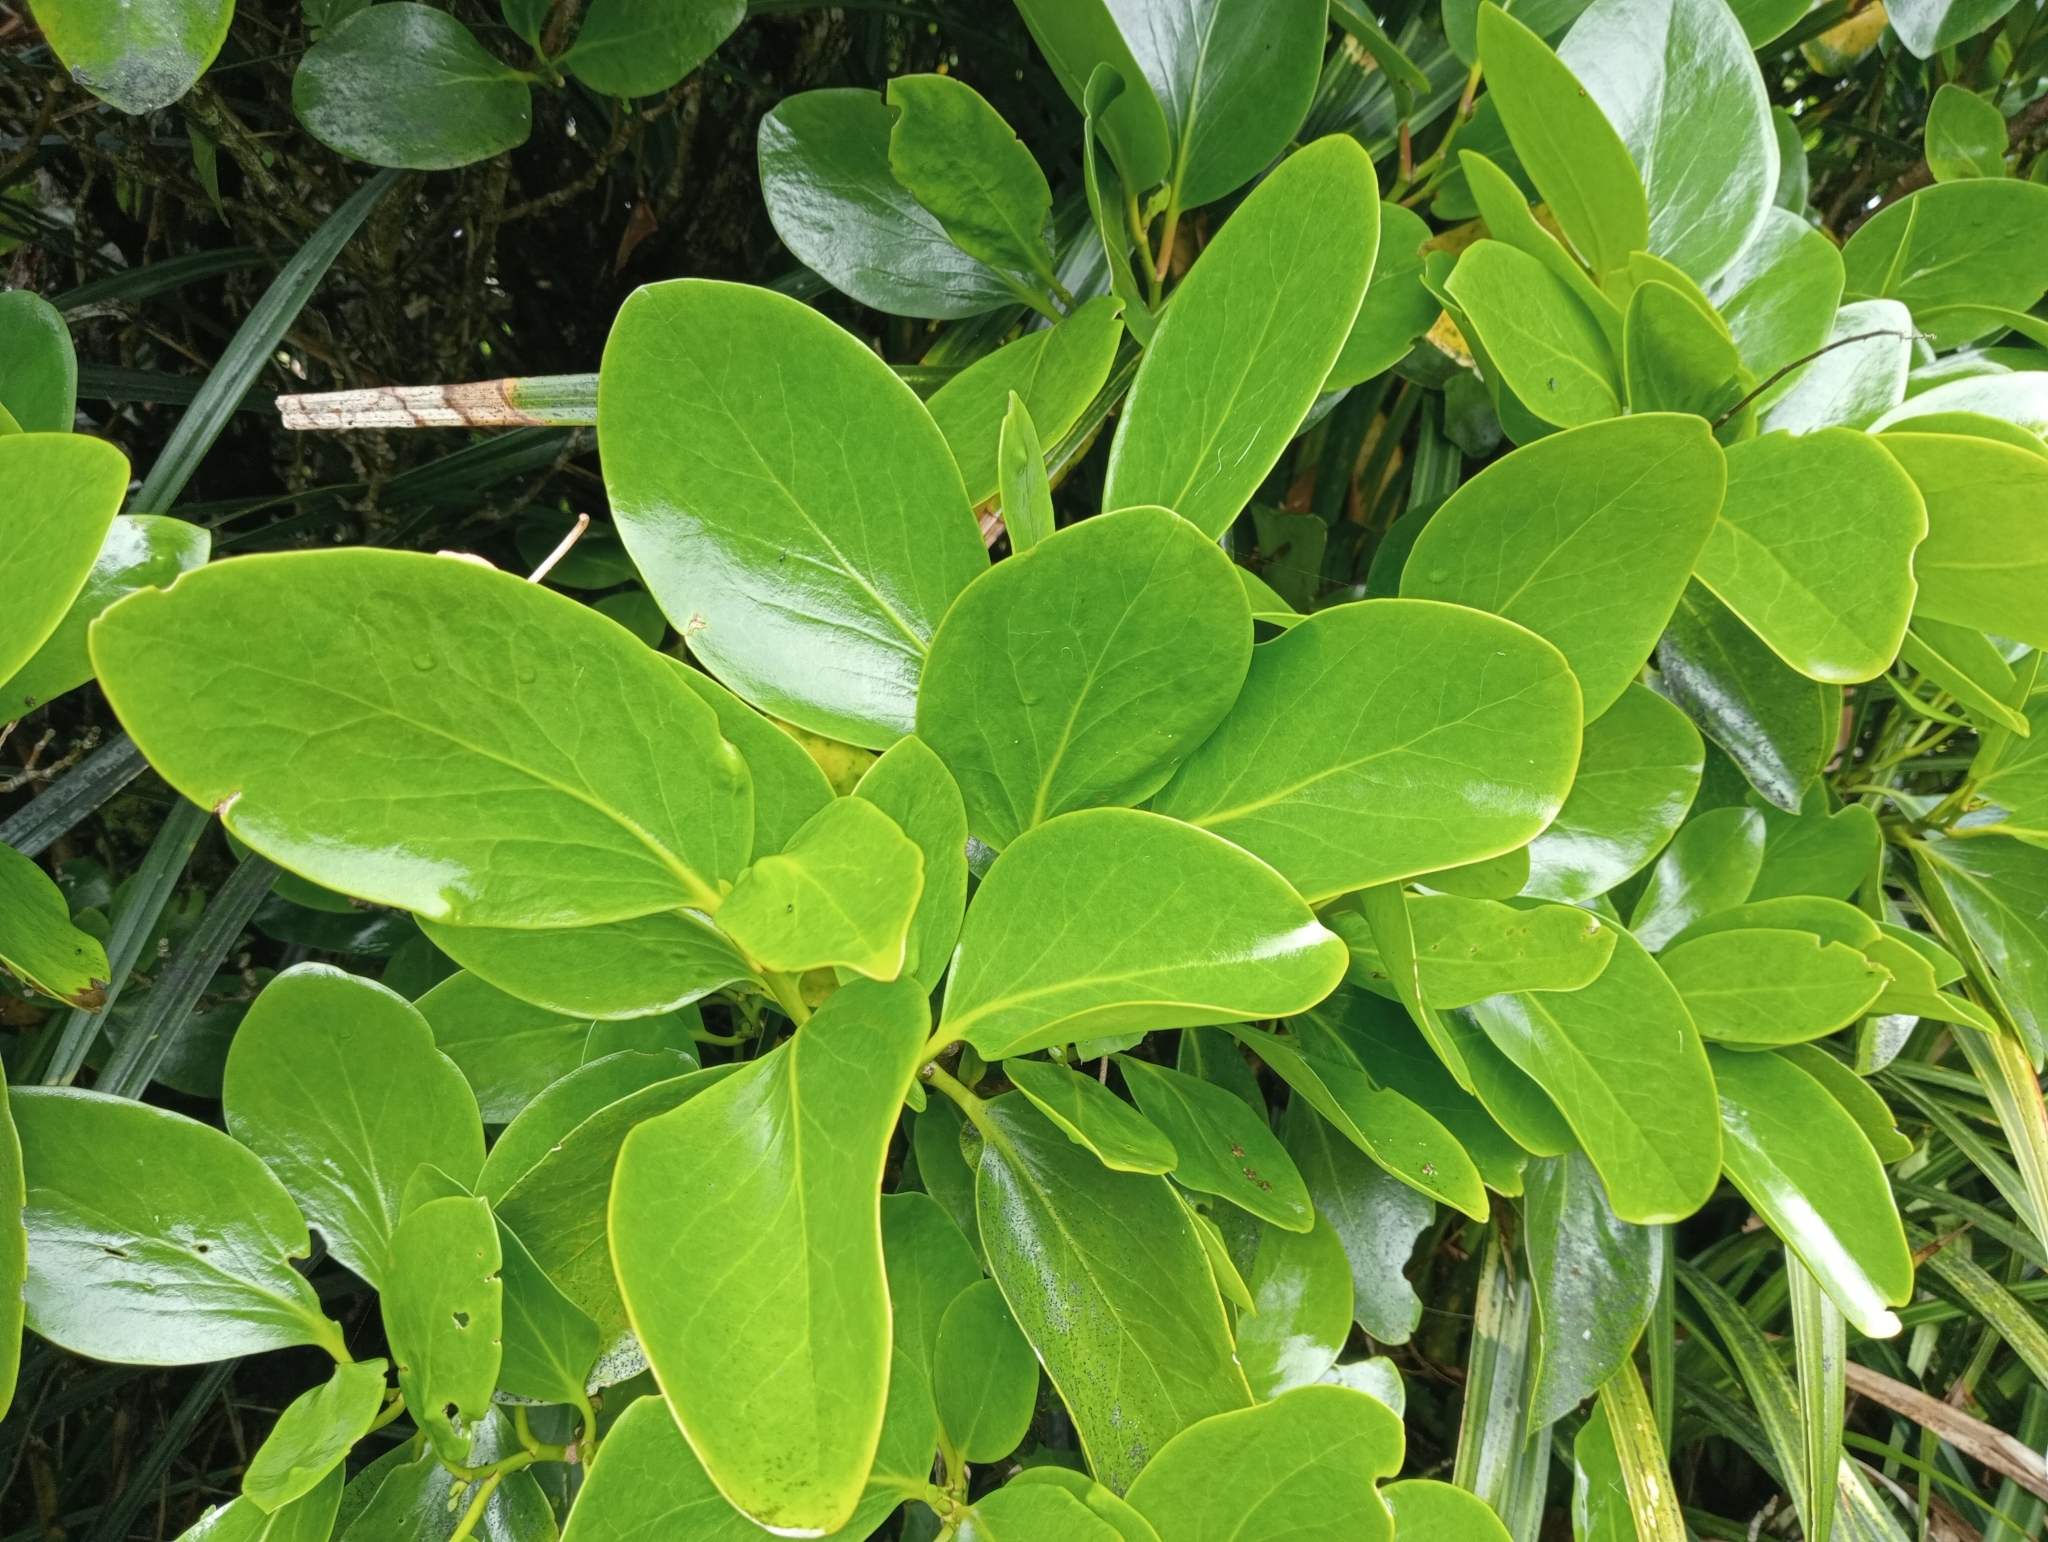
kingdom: Plantae
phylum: Tracheophyta
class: Magnoliopsida
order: Apiales
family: Griseliniaceae
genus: Griselinia
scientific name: Griselinia lucida
